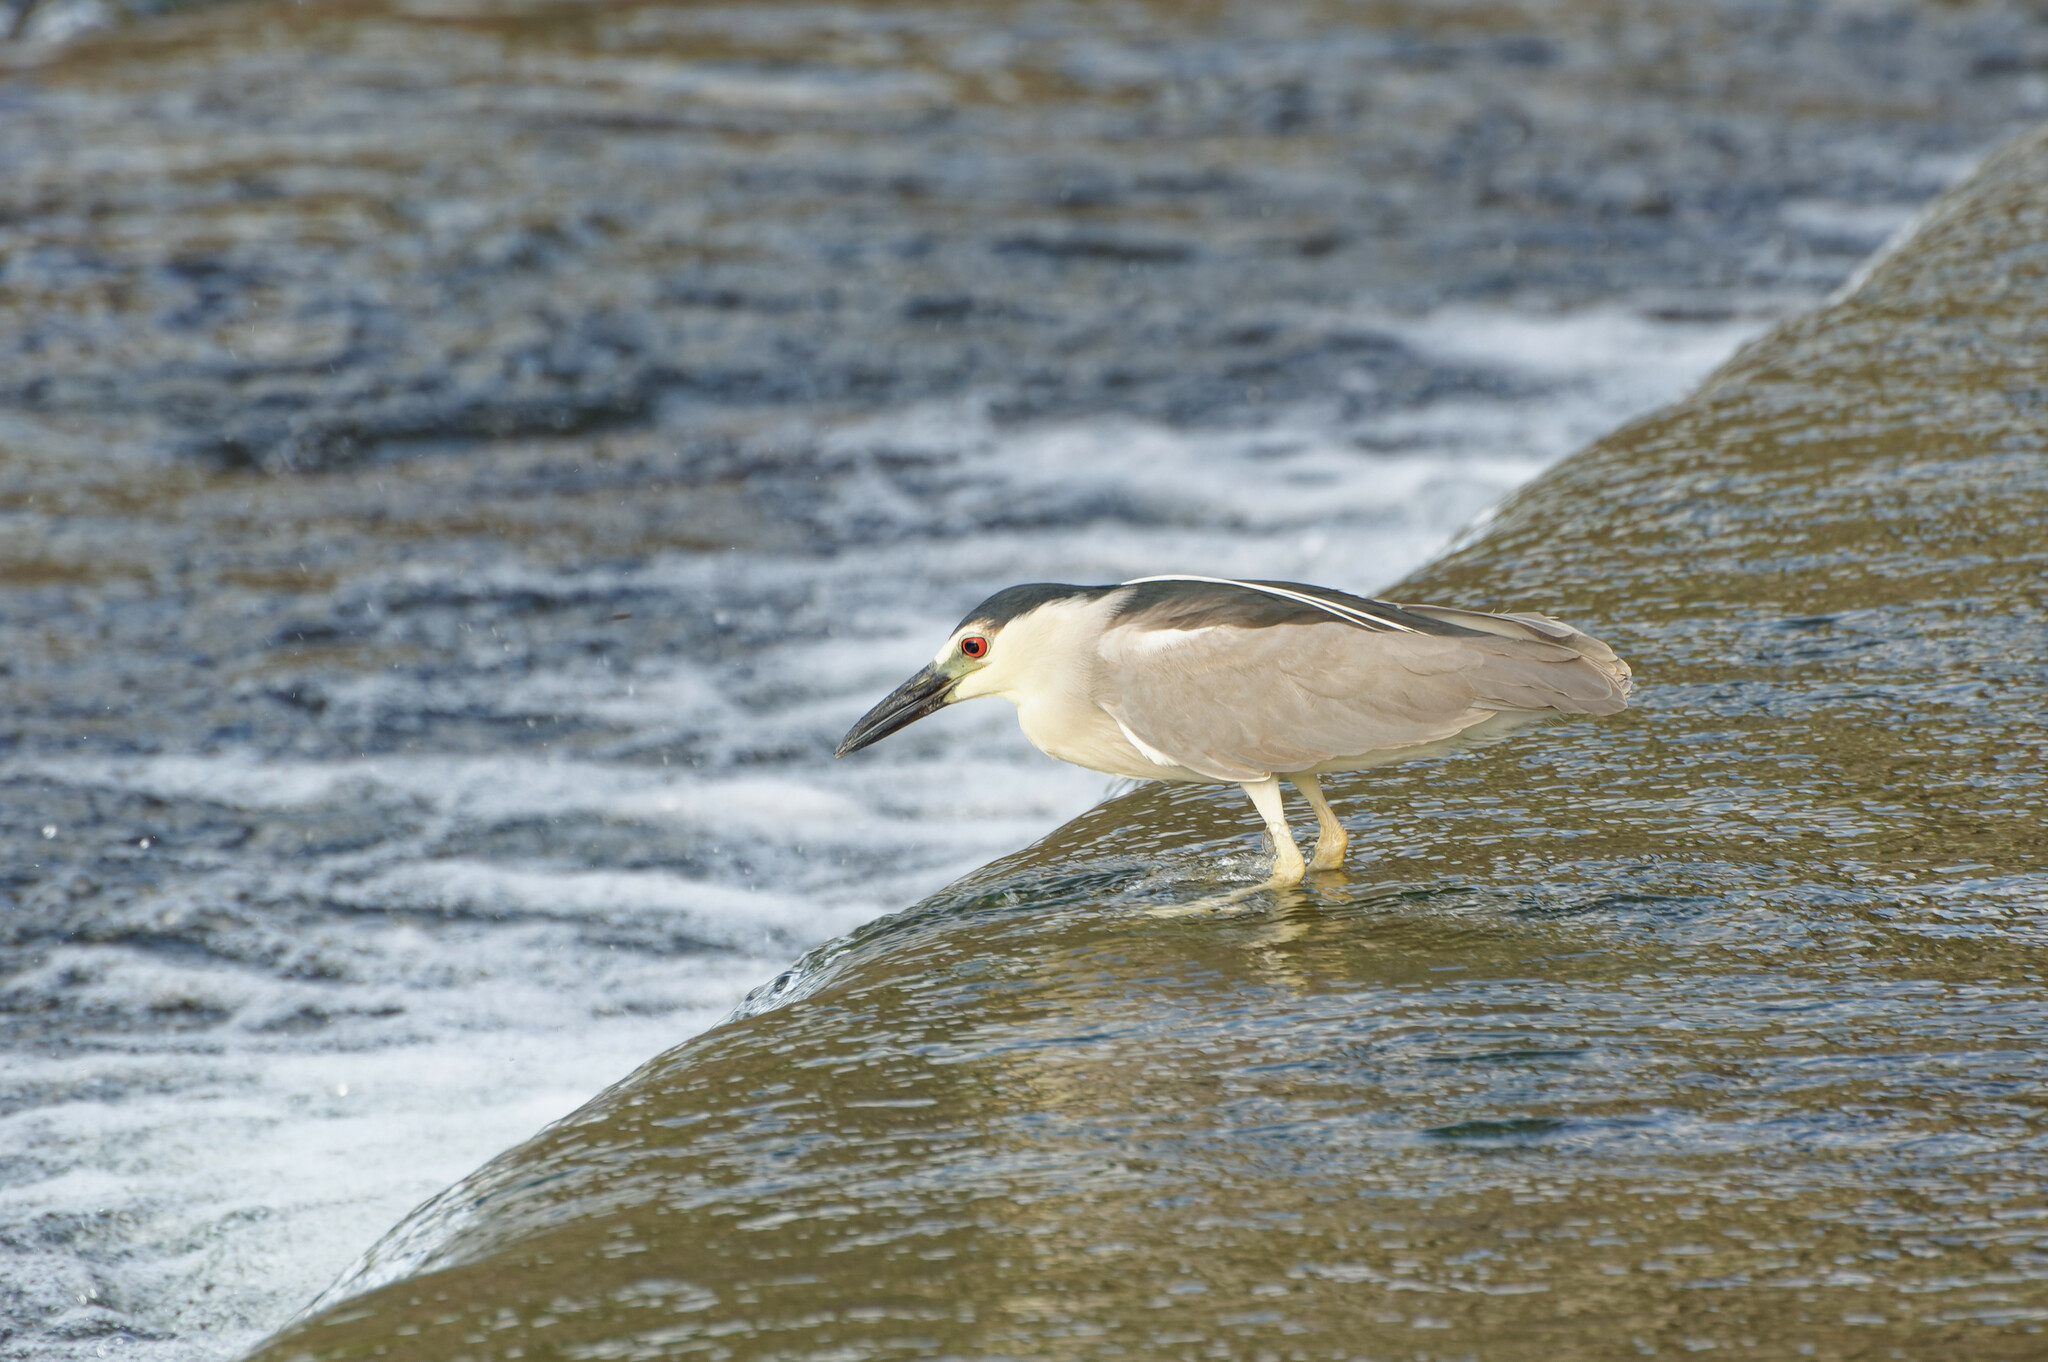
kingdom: Animalia
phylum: Chordata
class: Aves
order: Pelecaniformes
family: Ardeidae
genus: Nycticorax
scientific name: Nycticorax nycticorax
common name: Black-crowned night heron
